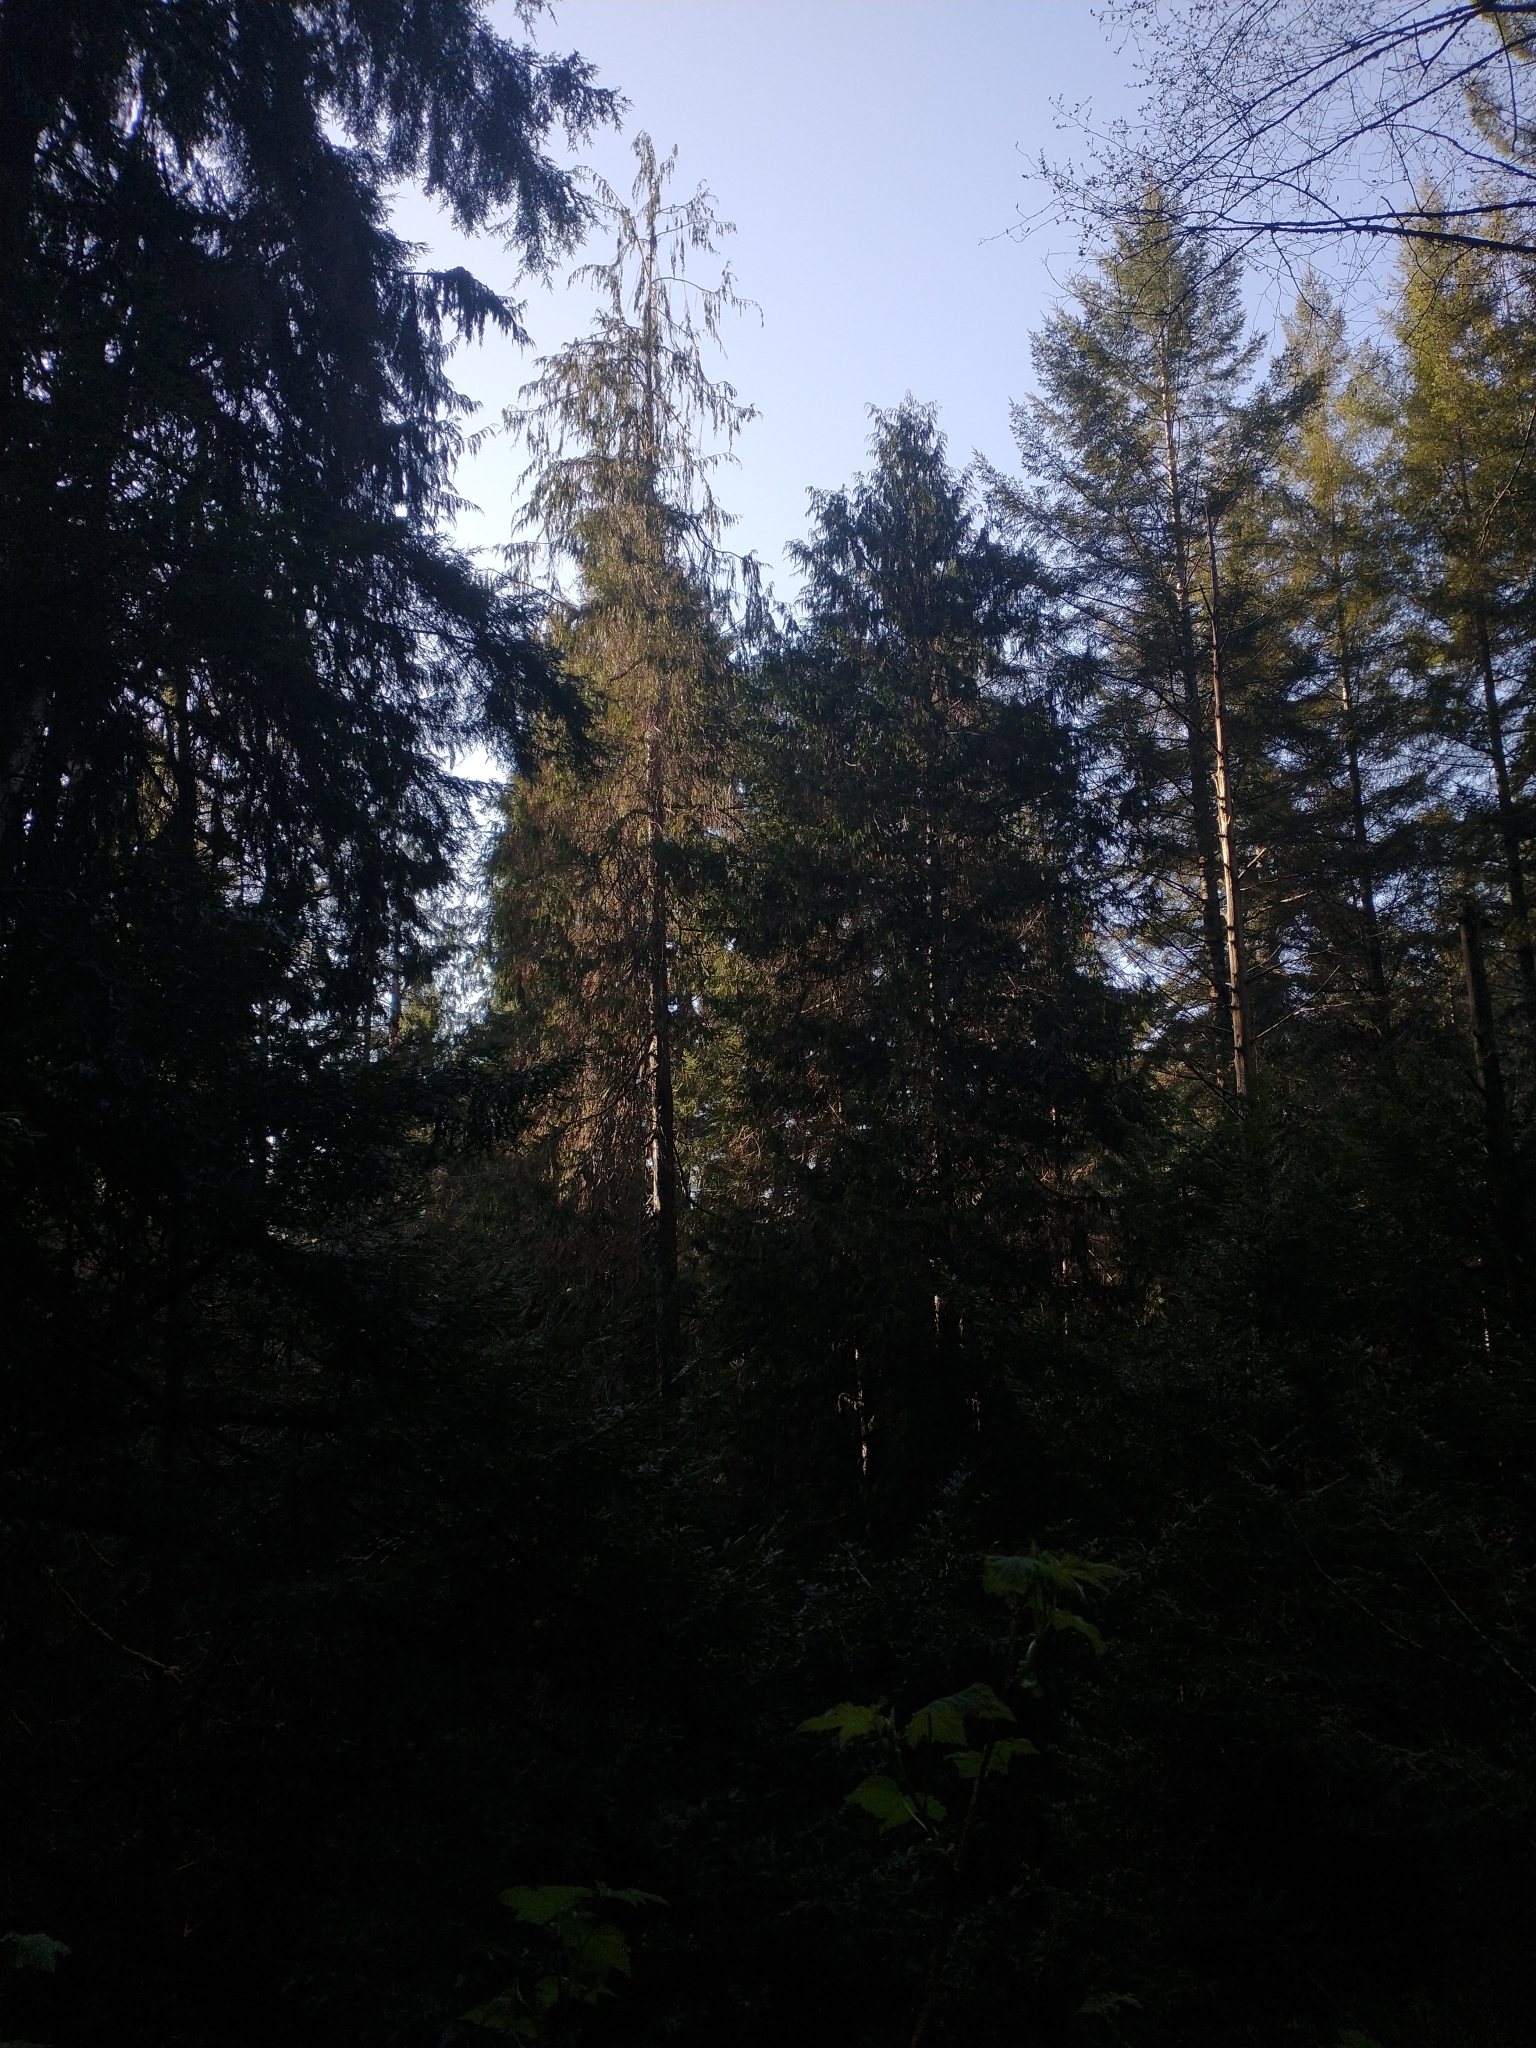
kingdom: Plantae
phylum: Tracheophyta
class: Pinopsida
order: Pinales
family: Cupressaceae
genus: Chamaecyparis
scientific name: Chamaecyparis lawsoniana
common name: Lawson's cypress
